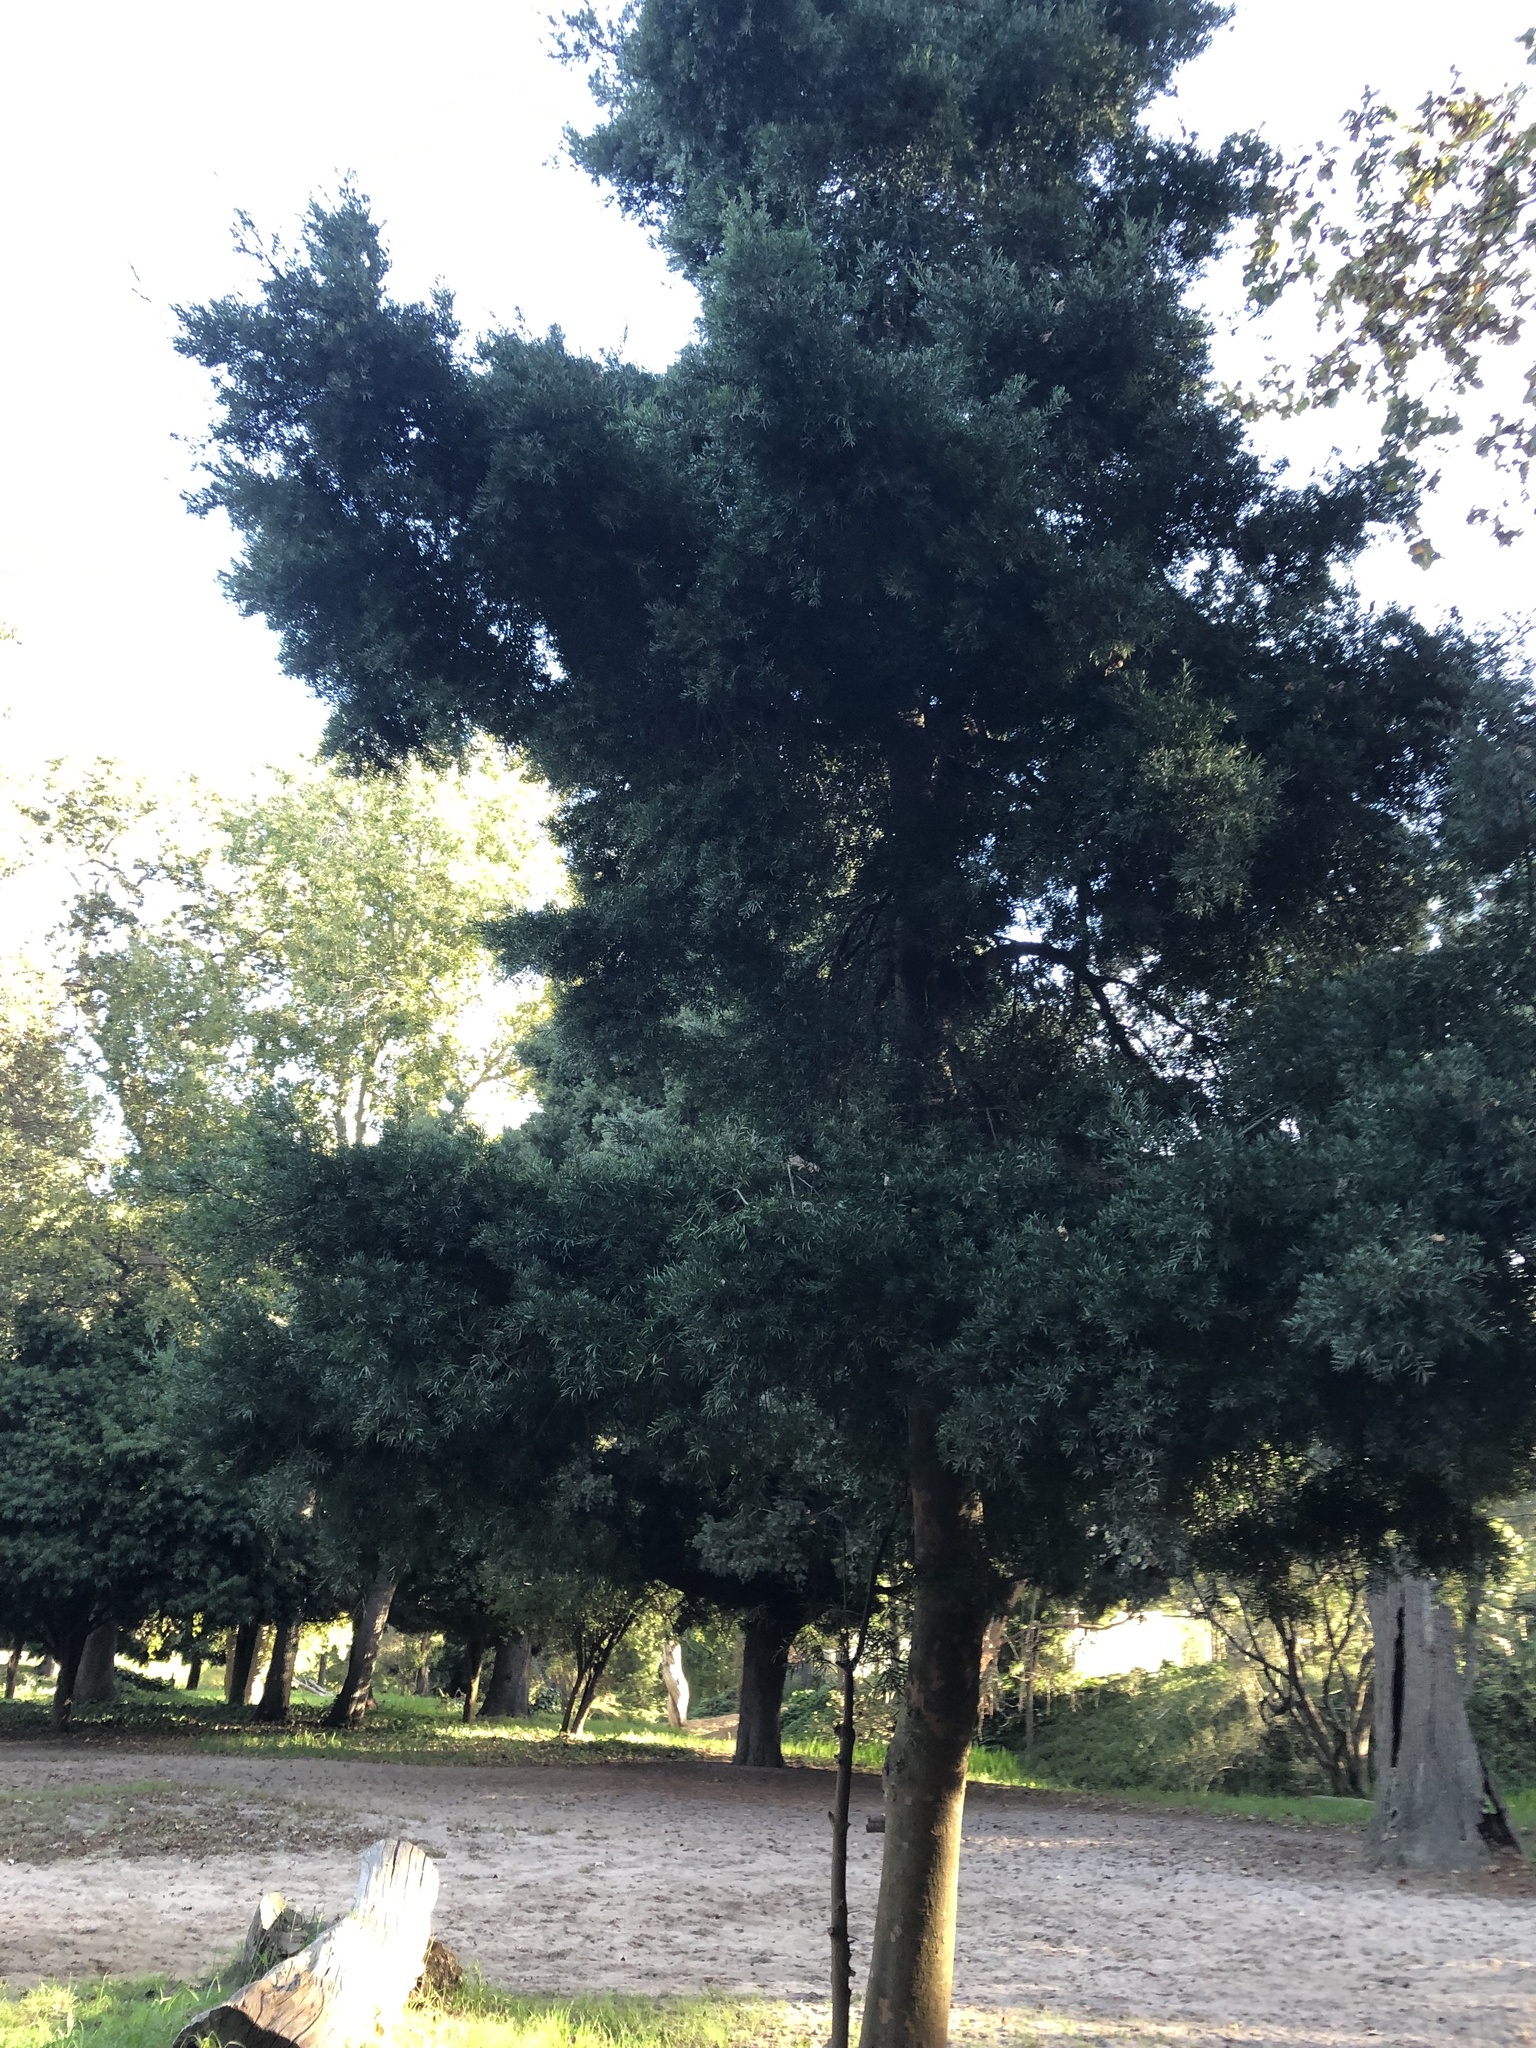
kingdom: Plantae
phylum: Tracheophyta
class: Pinopsida
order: Pinales
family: Podocarpaceae
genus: Afrocarpus
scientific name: Afrocarpus falcatus
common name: Bastard yellowwood
